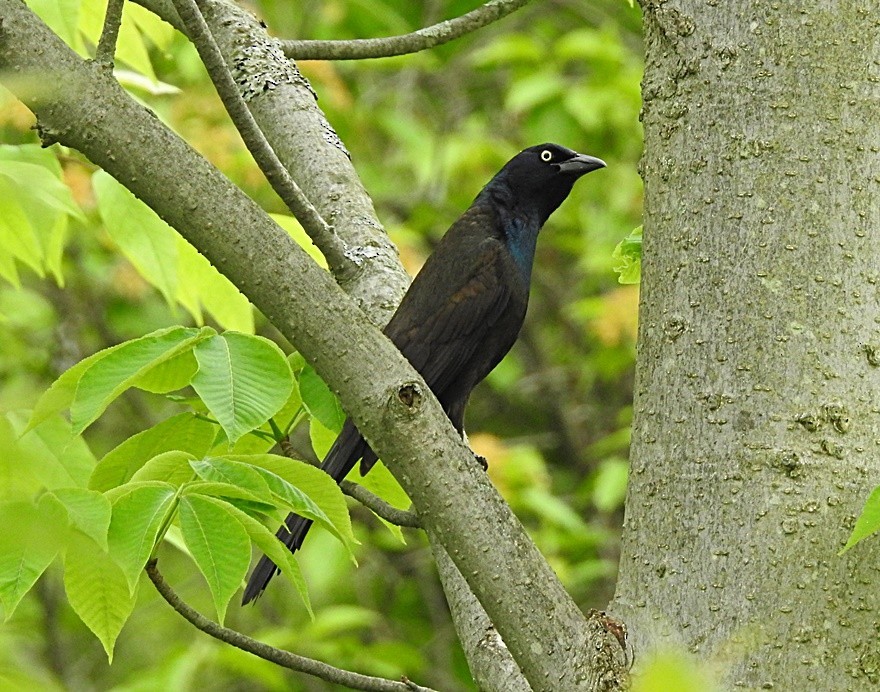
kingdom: Animalia
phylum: Chordata
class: Aves
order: Passeriformes
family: Icteridae
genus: Quiscalus
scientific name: Quiscalus quiscula
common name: Common grackle
